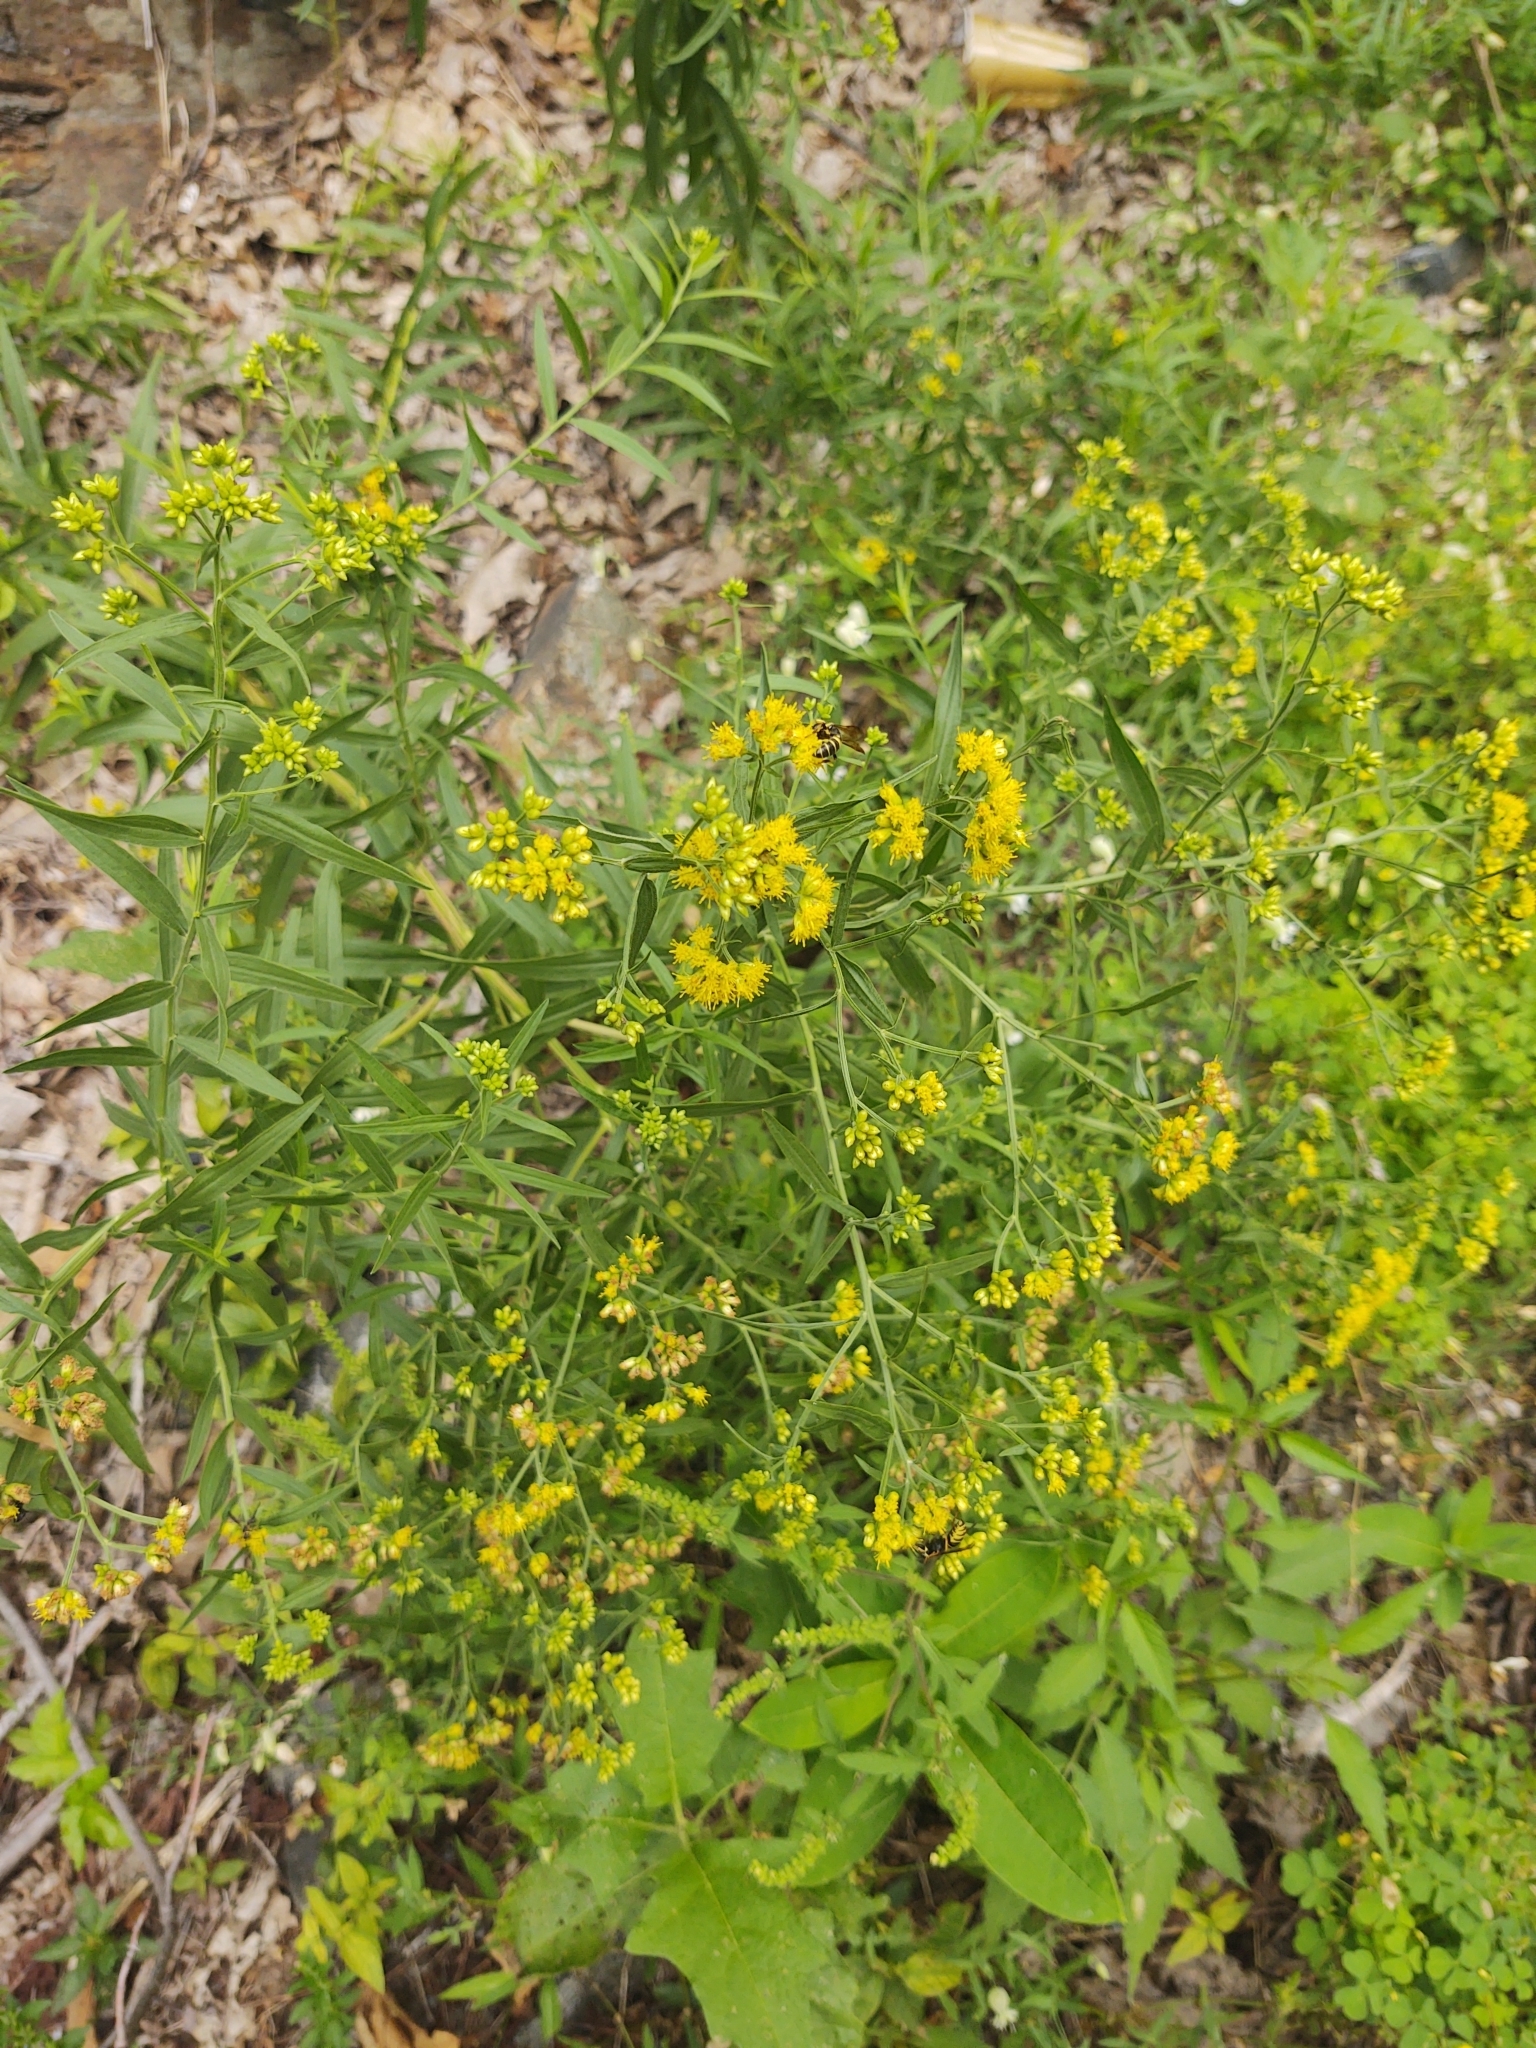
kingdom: Plantae
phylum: Tracheophyta
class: Magnoliopsida
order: Asterales
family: Asteraceae
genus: Euthamia
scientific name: Euthamia graminifolia
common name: Common goldentop
